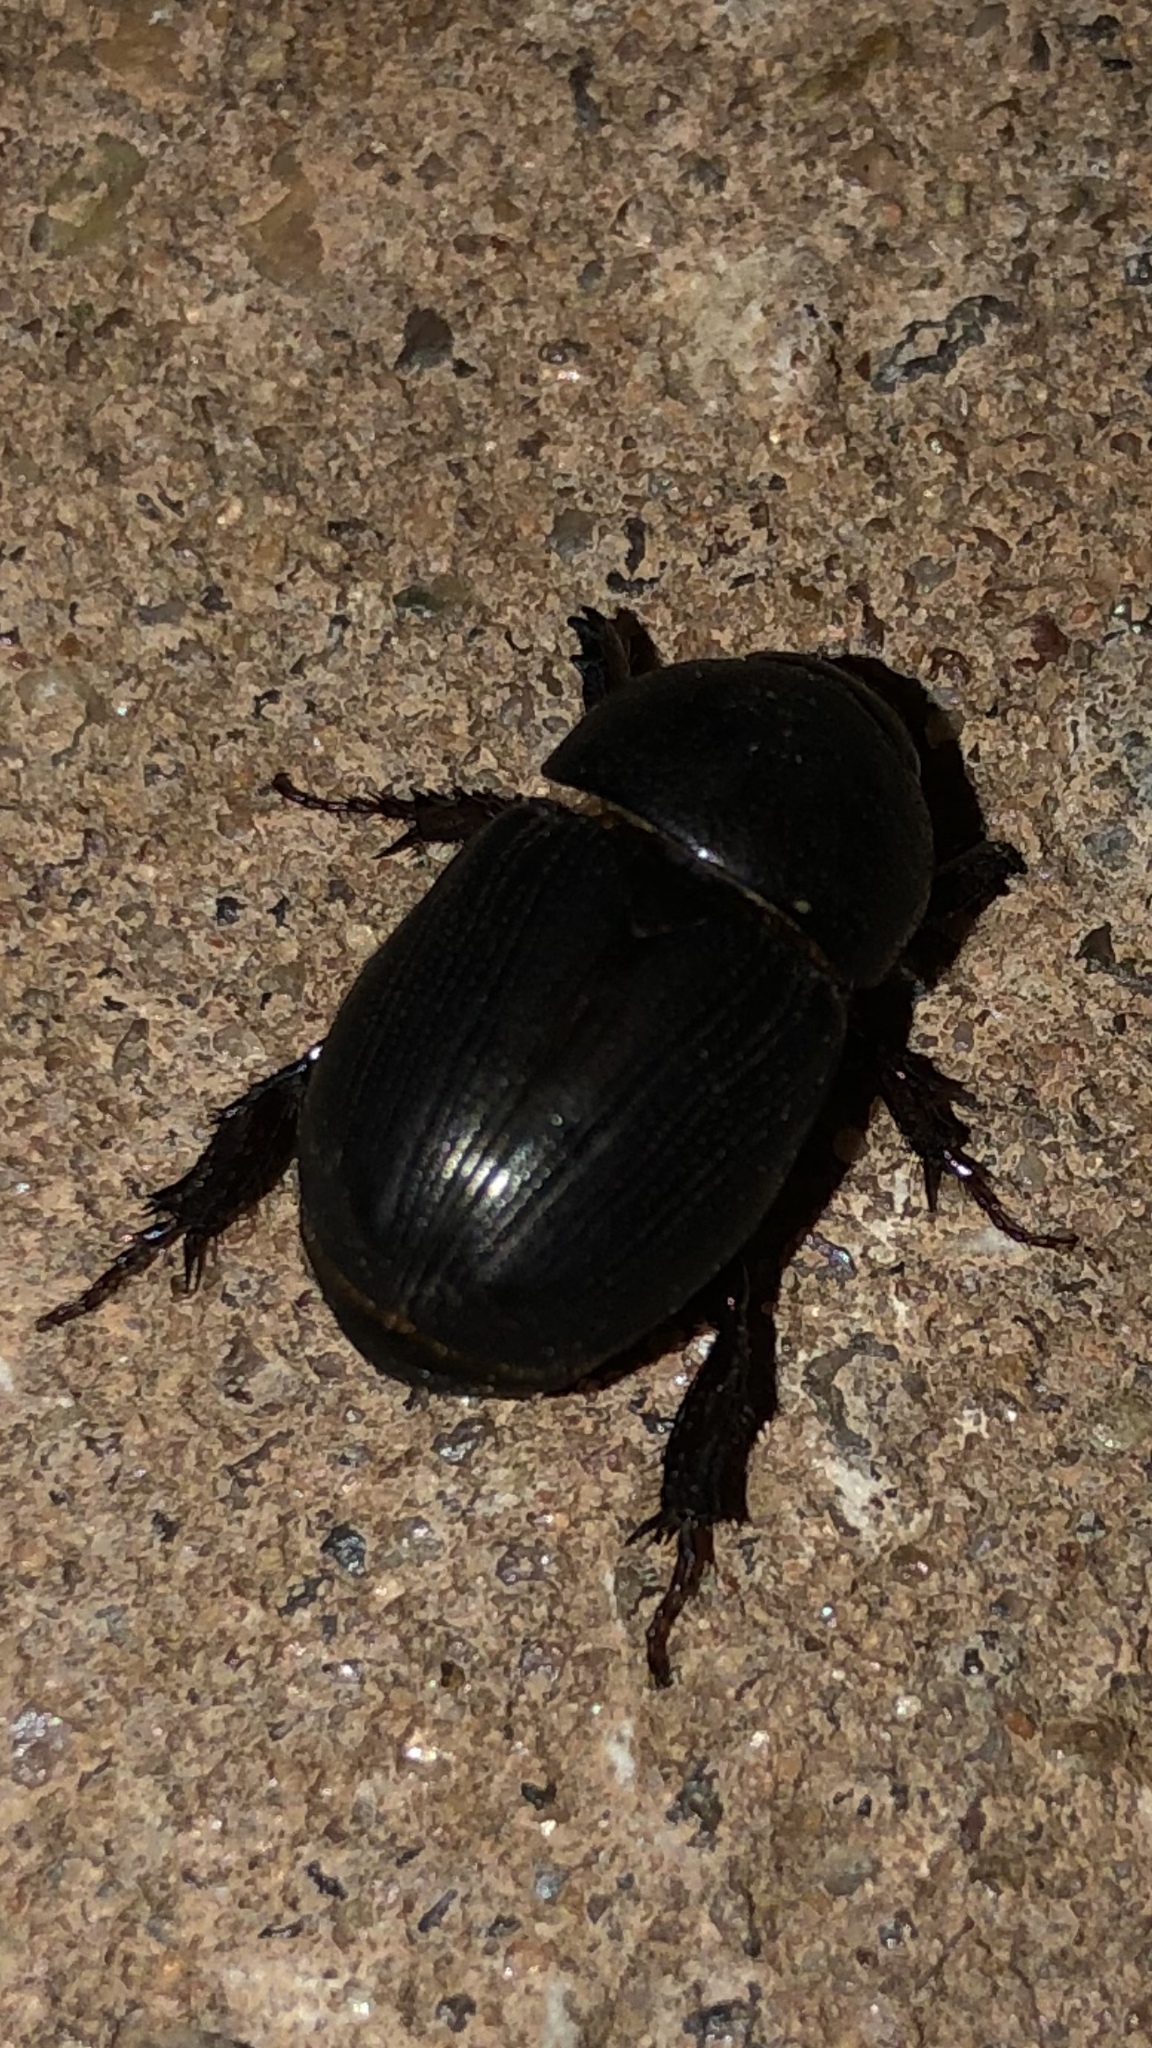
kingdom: Animalia
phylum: Arthropoda
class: Insecta
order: Coleoptera
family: Scarabaeidae
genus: Euetheola
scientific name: Euetheola humilis
